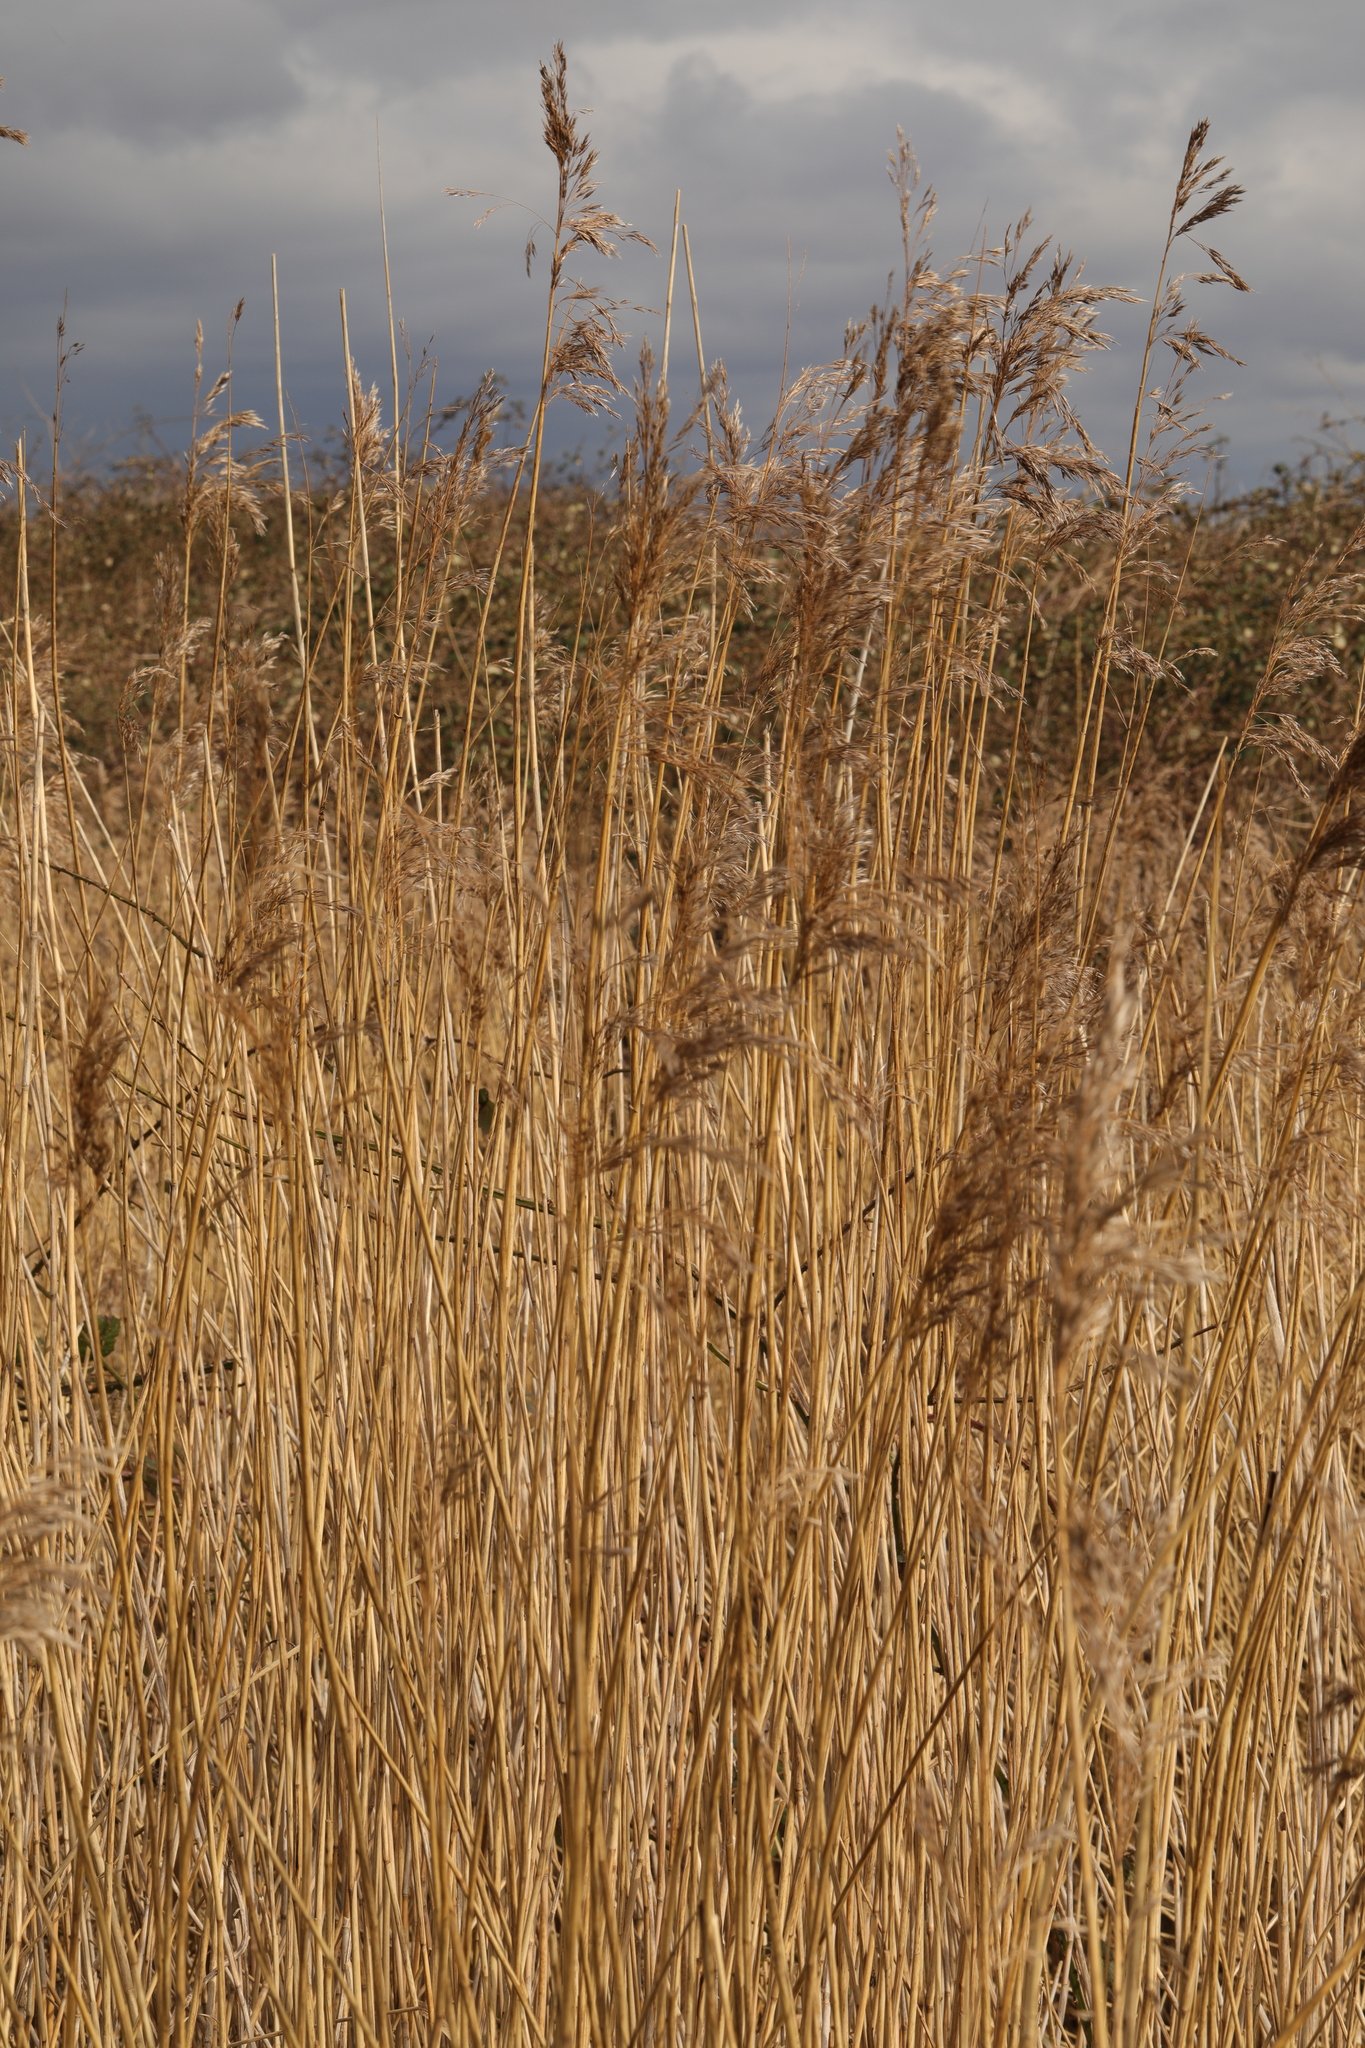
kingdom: Plantae
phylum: Tracheophyta
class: Liliopsida
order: Poales
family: Poaceae
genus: Phragmites
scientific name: Phragmites australis
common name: Common reed
